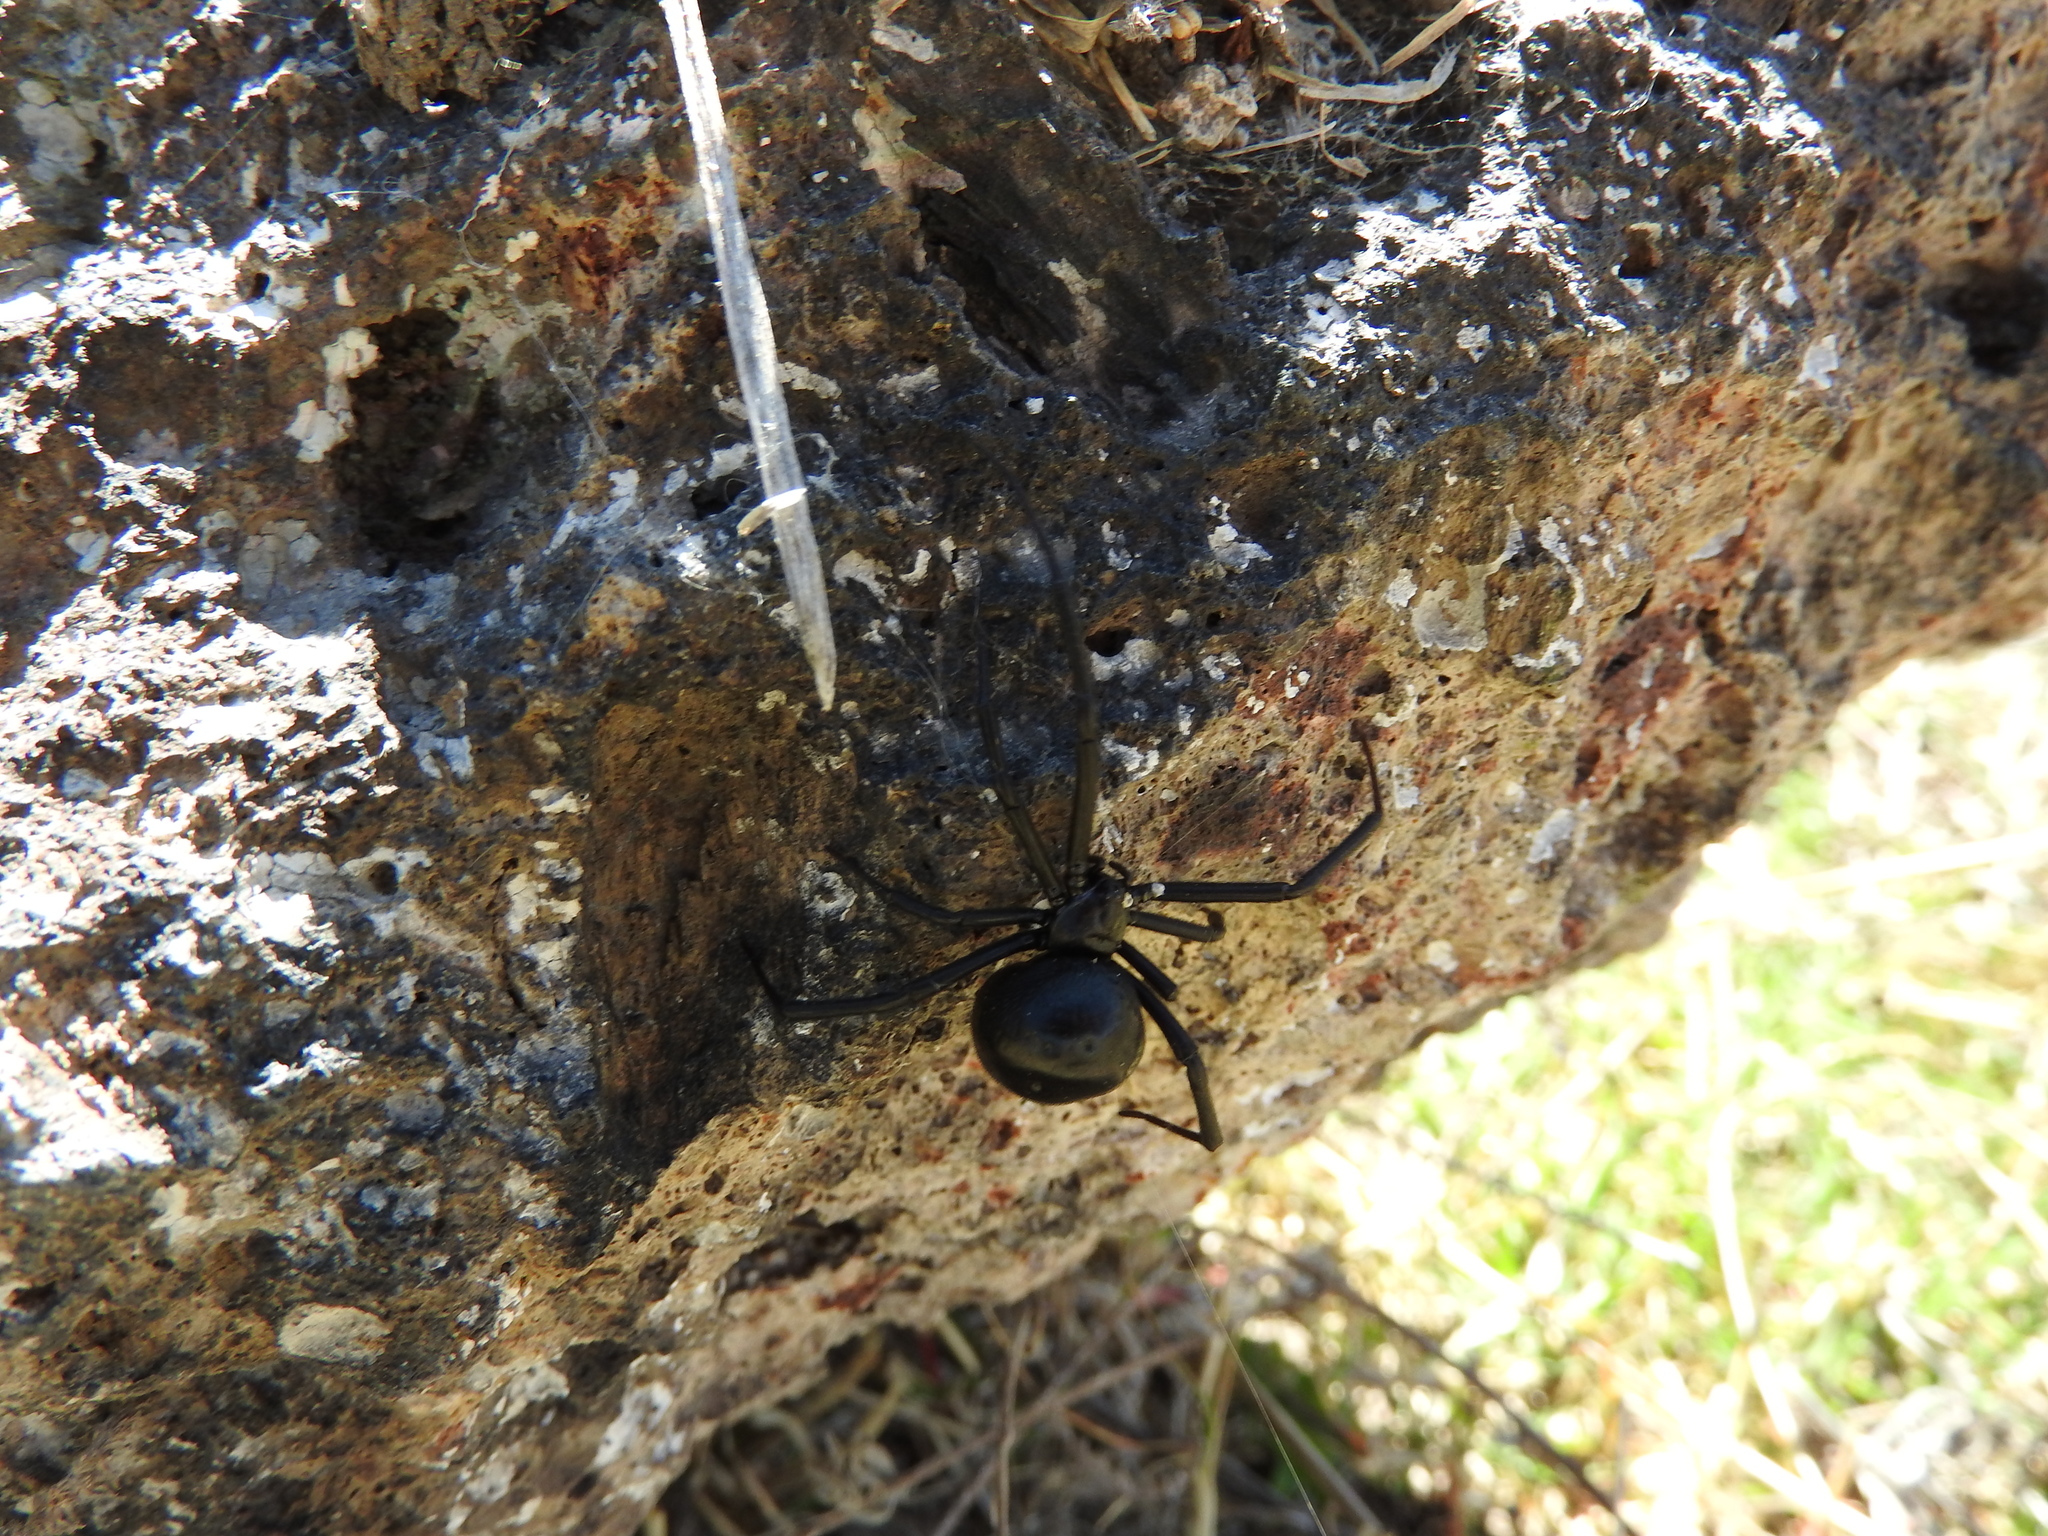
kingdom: Animalia
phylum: Arthropoda
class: Arachnida
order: Araneae
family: Theridiidae
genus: Latrodectus
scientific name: Latrodectus mactans
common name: Cobweb spiders
